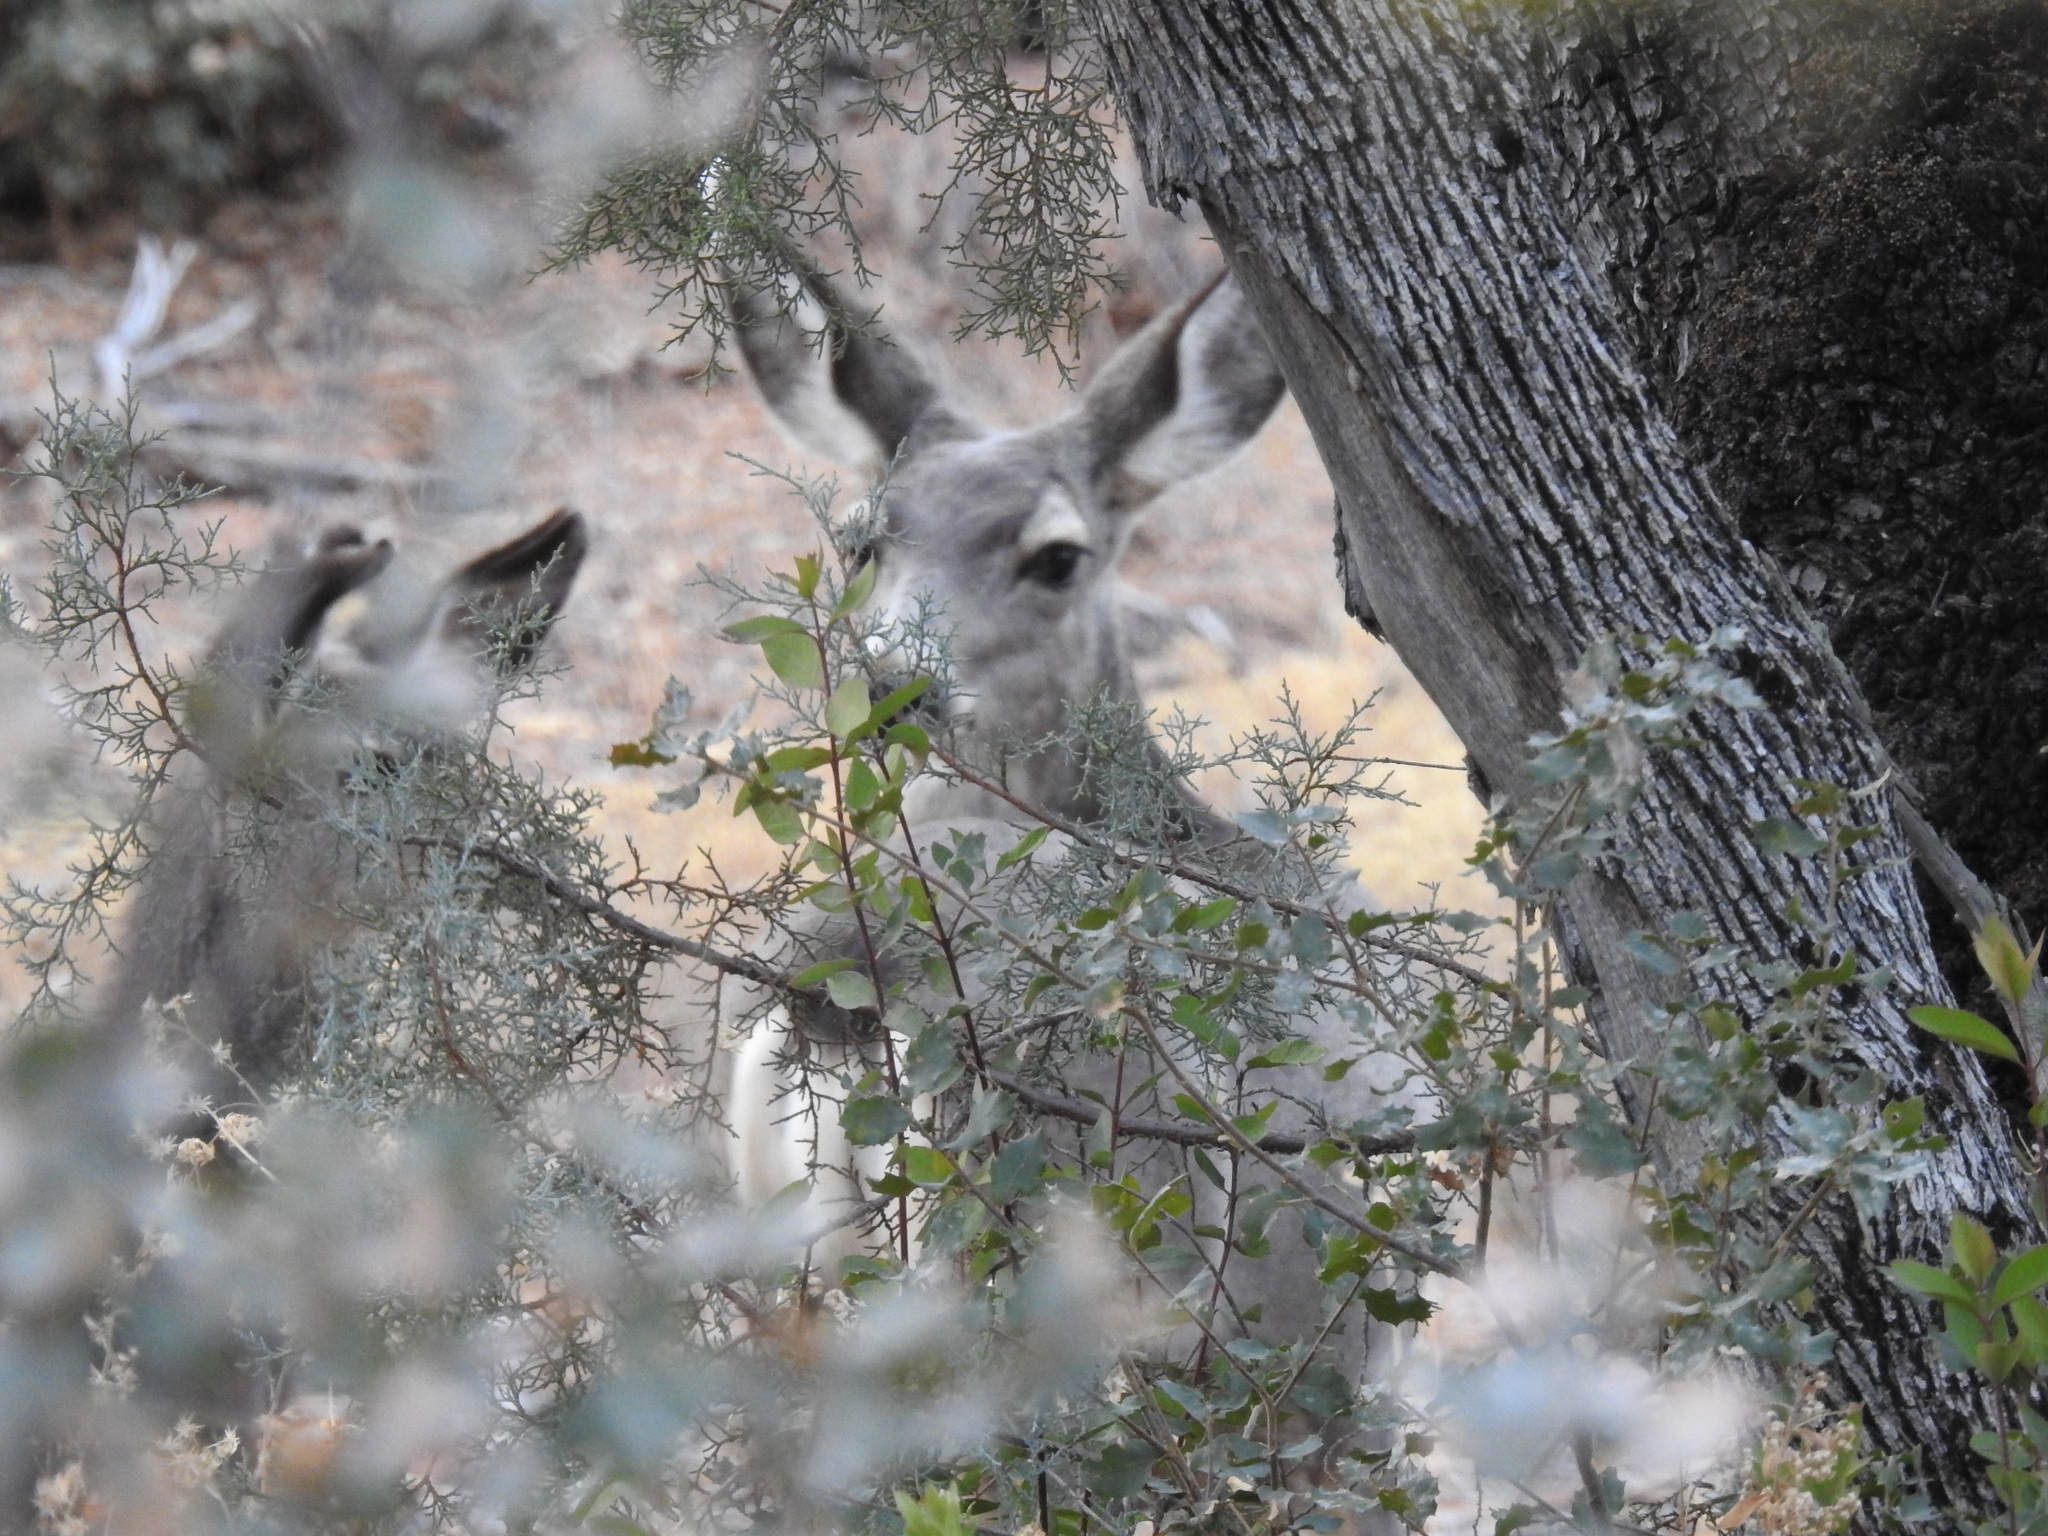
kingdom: Animalia
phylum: Chordata
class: Mammalia
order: Artiodactyla
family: Cervidae
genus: Odocoileus
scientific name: Odocoileus hemionus
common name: Mule deer
